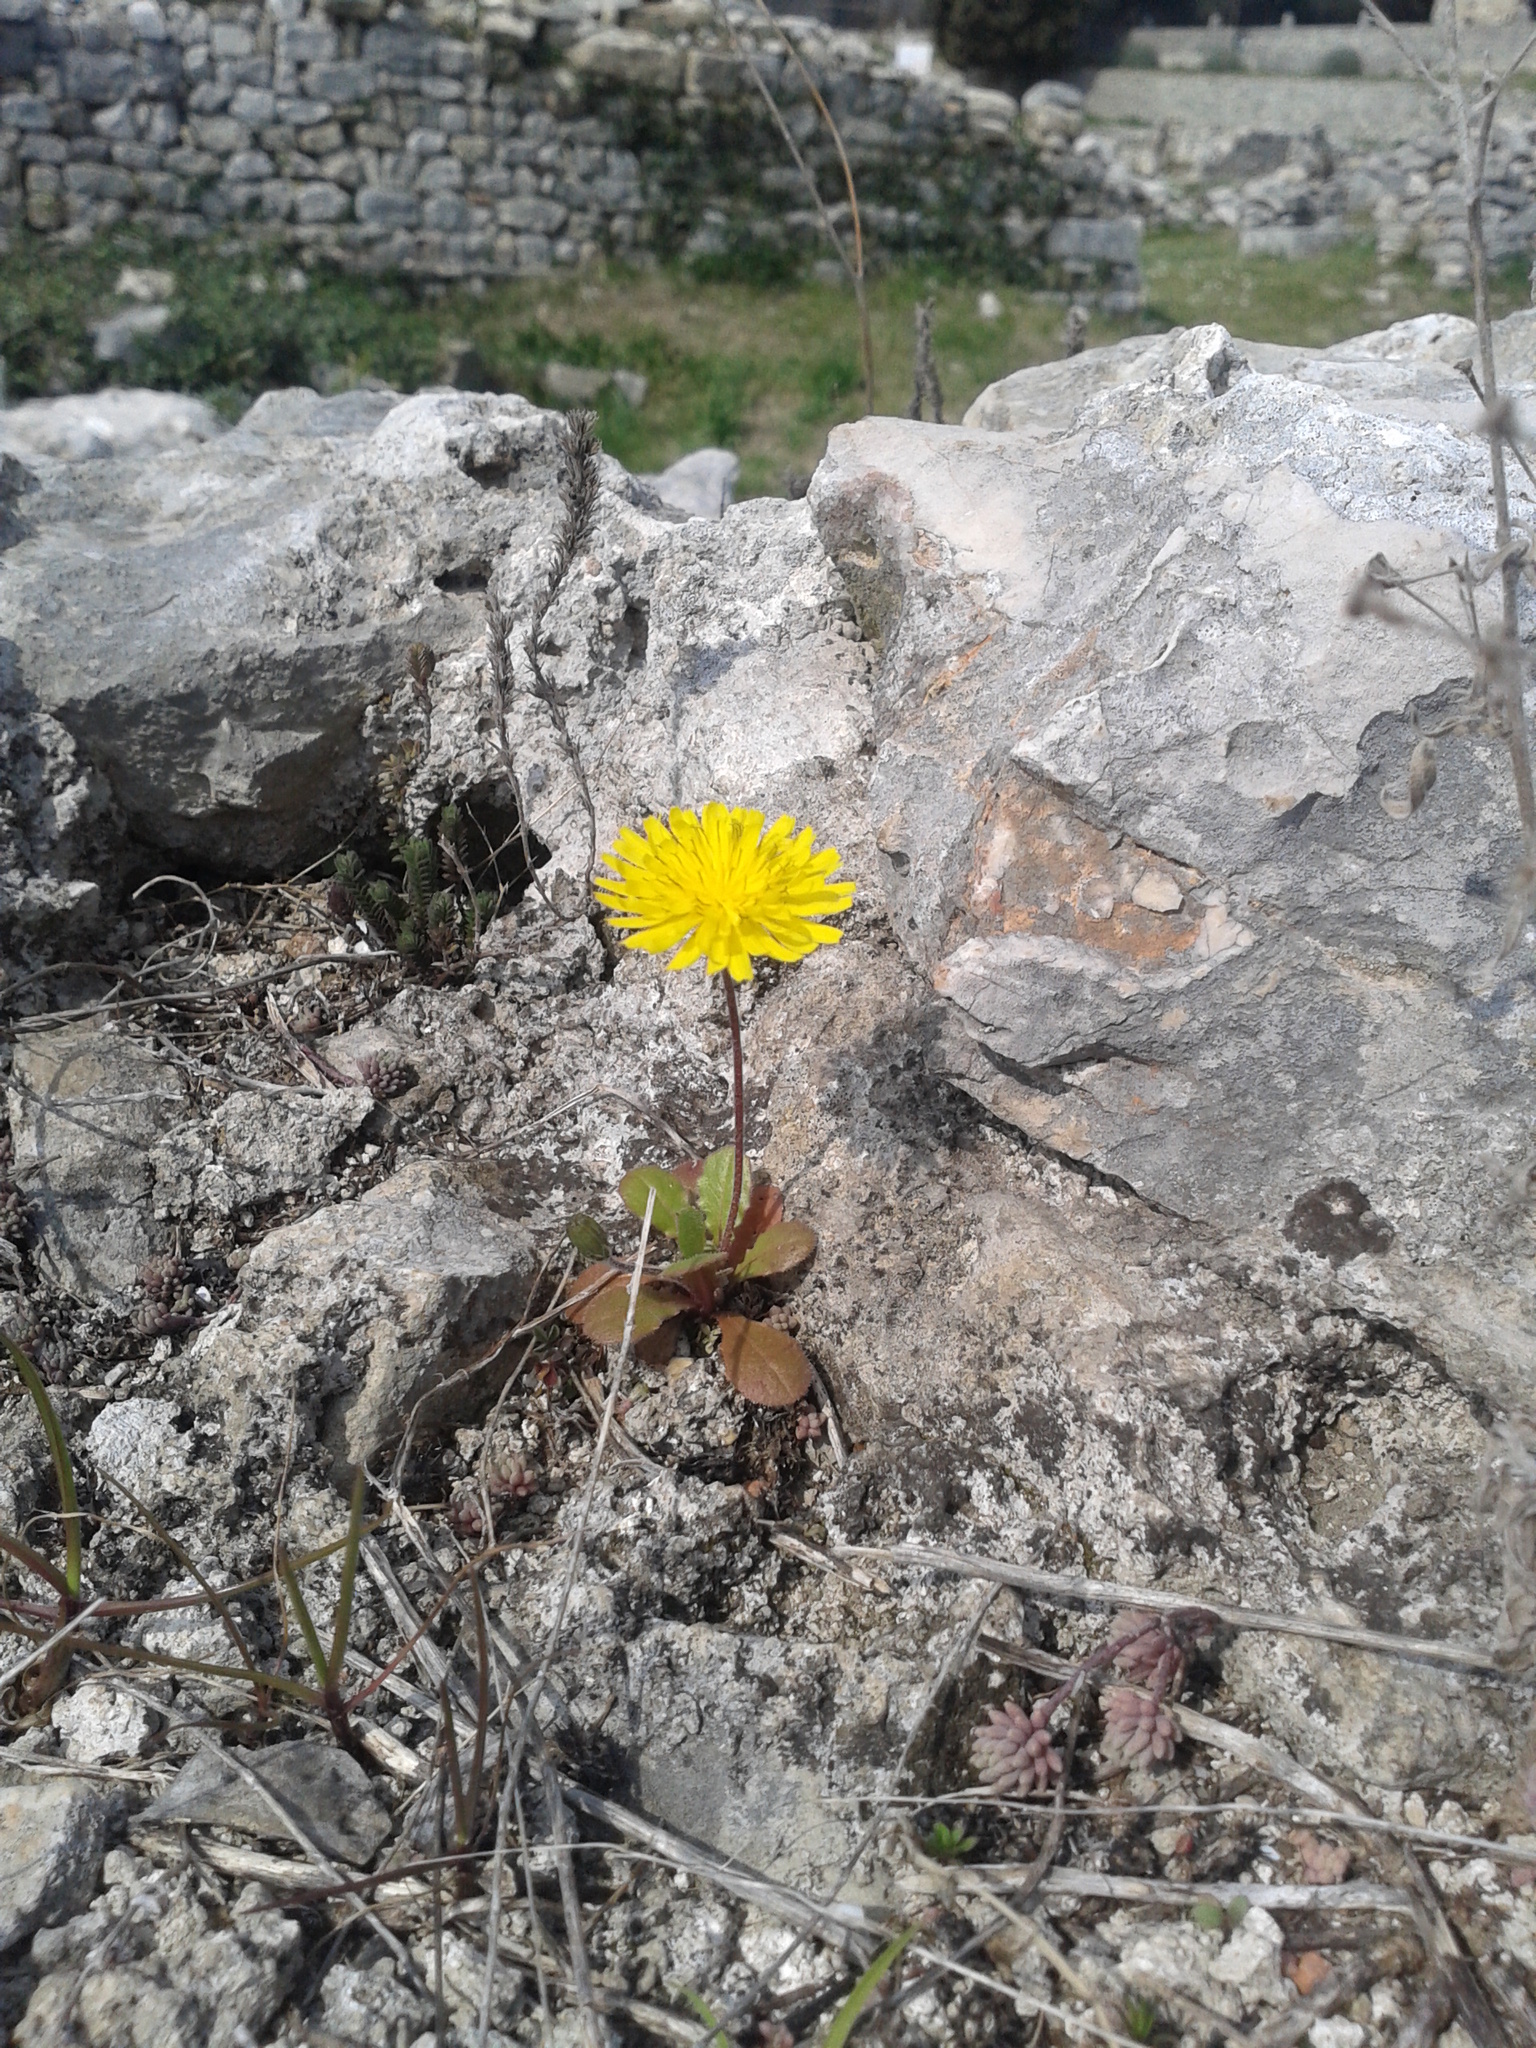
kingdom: Plantae
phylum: Tracheophyta
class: Magnoliopsida
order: Asterales
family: Asteraceae
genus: Crepis
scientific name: Crepis sancta
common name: Hawk's-beard
